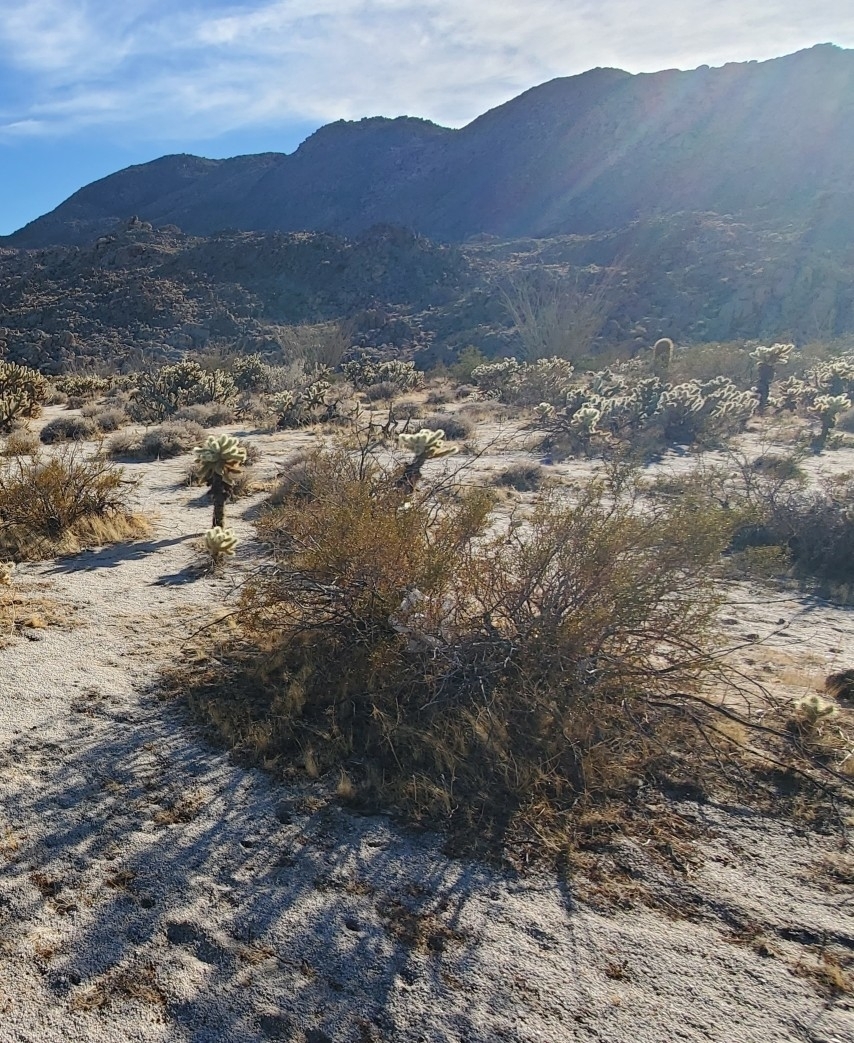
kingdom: Plantae
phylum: Tracheophyta
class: Magnoliopsida
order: Zygophyllales
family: Zygophyllaceae
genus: Larrea
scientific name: Larrea tridentata
